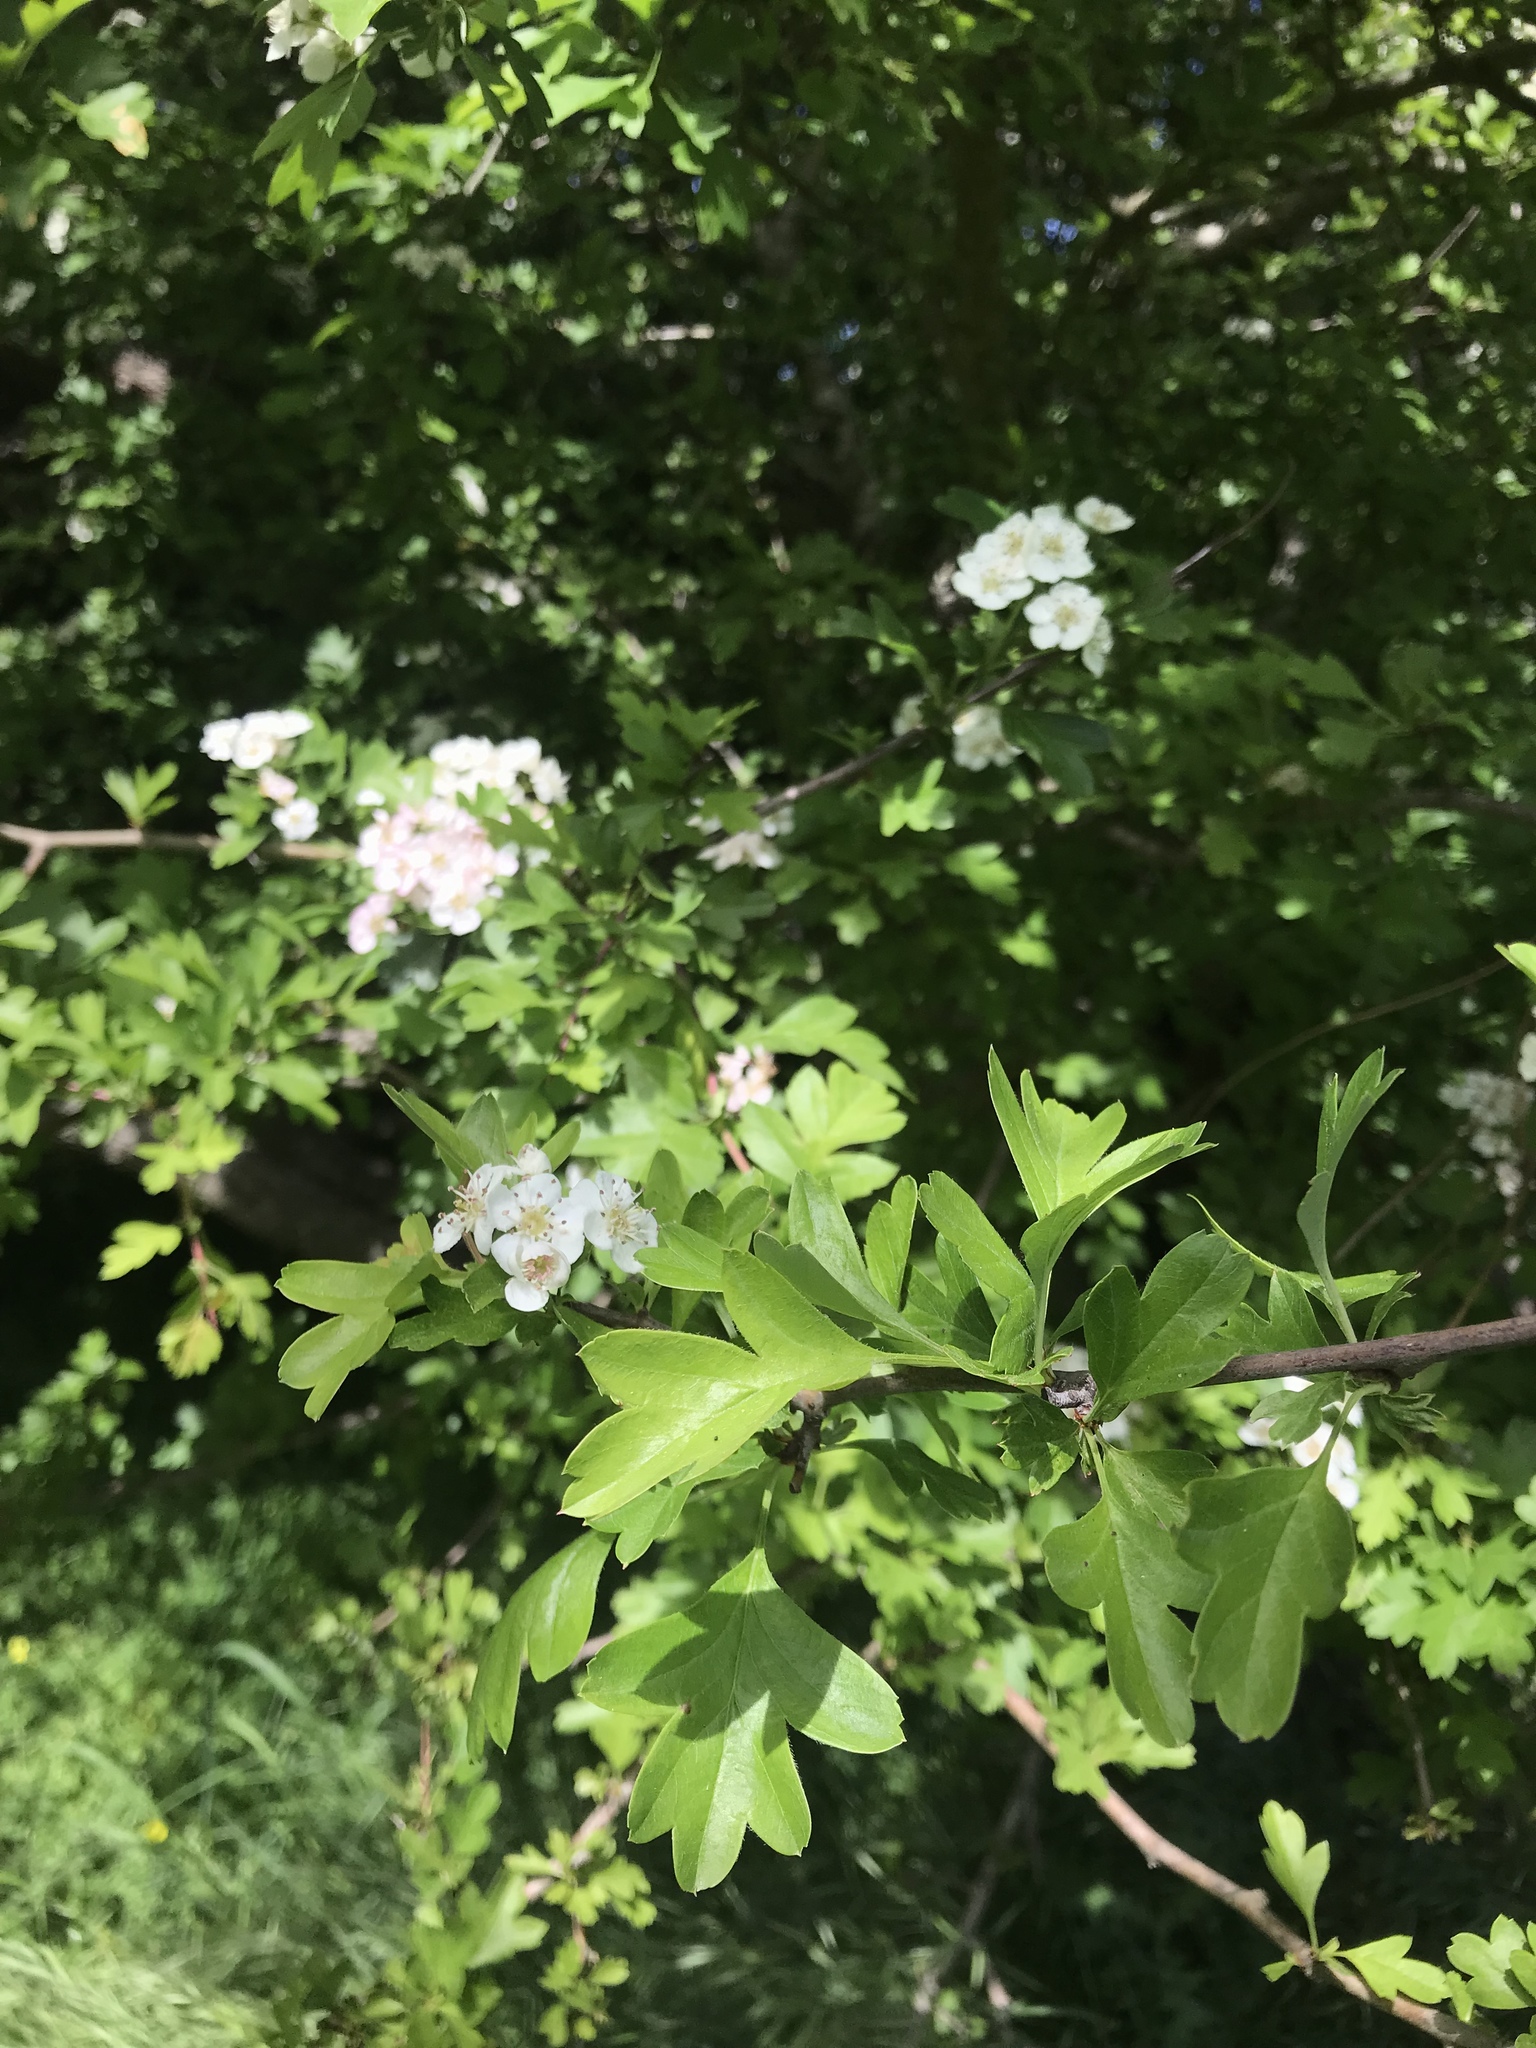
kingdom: Plantae
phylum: Tracheophyta
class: Magnoliopsida
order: Rosales
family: Rosaceae
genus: Crataegus
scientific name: Crataegus monogyna
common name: Hawthorn
